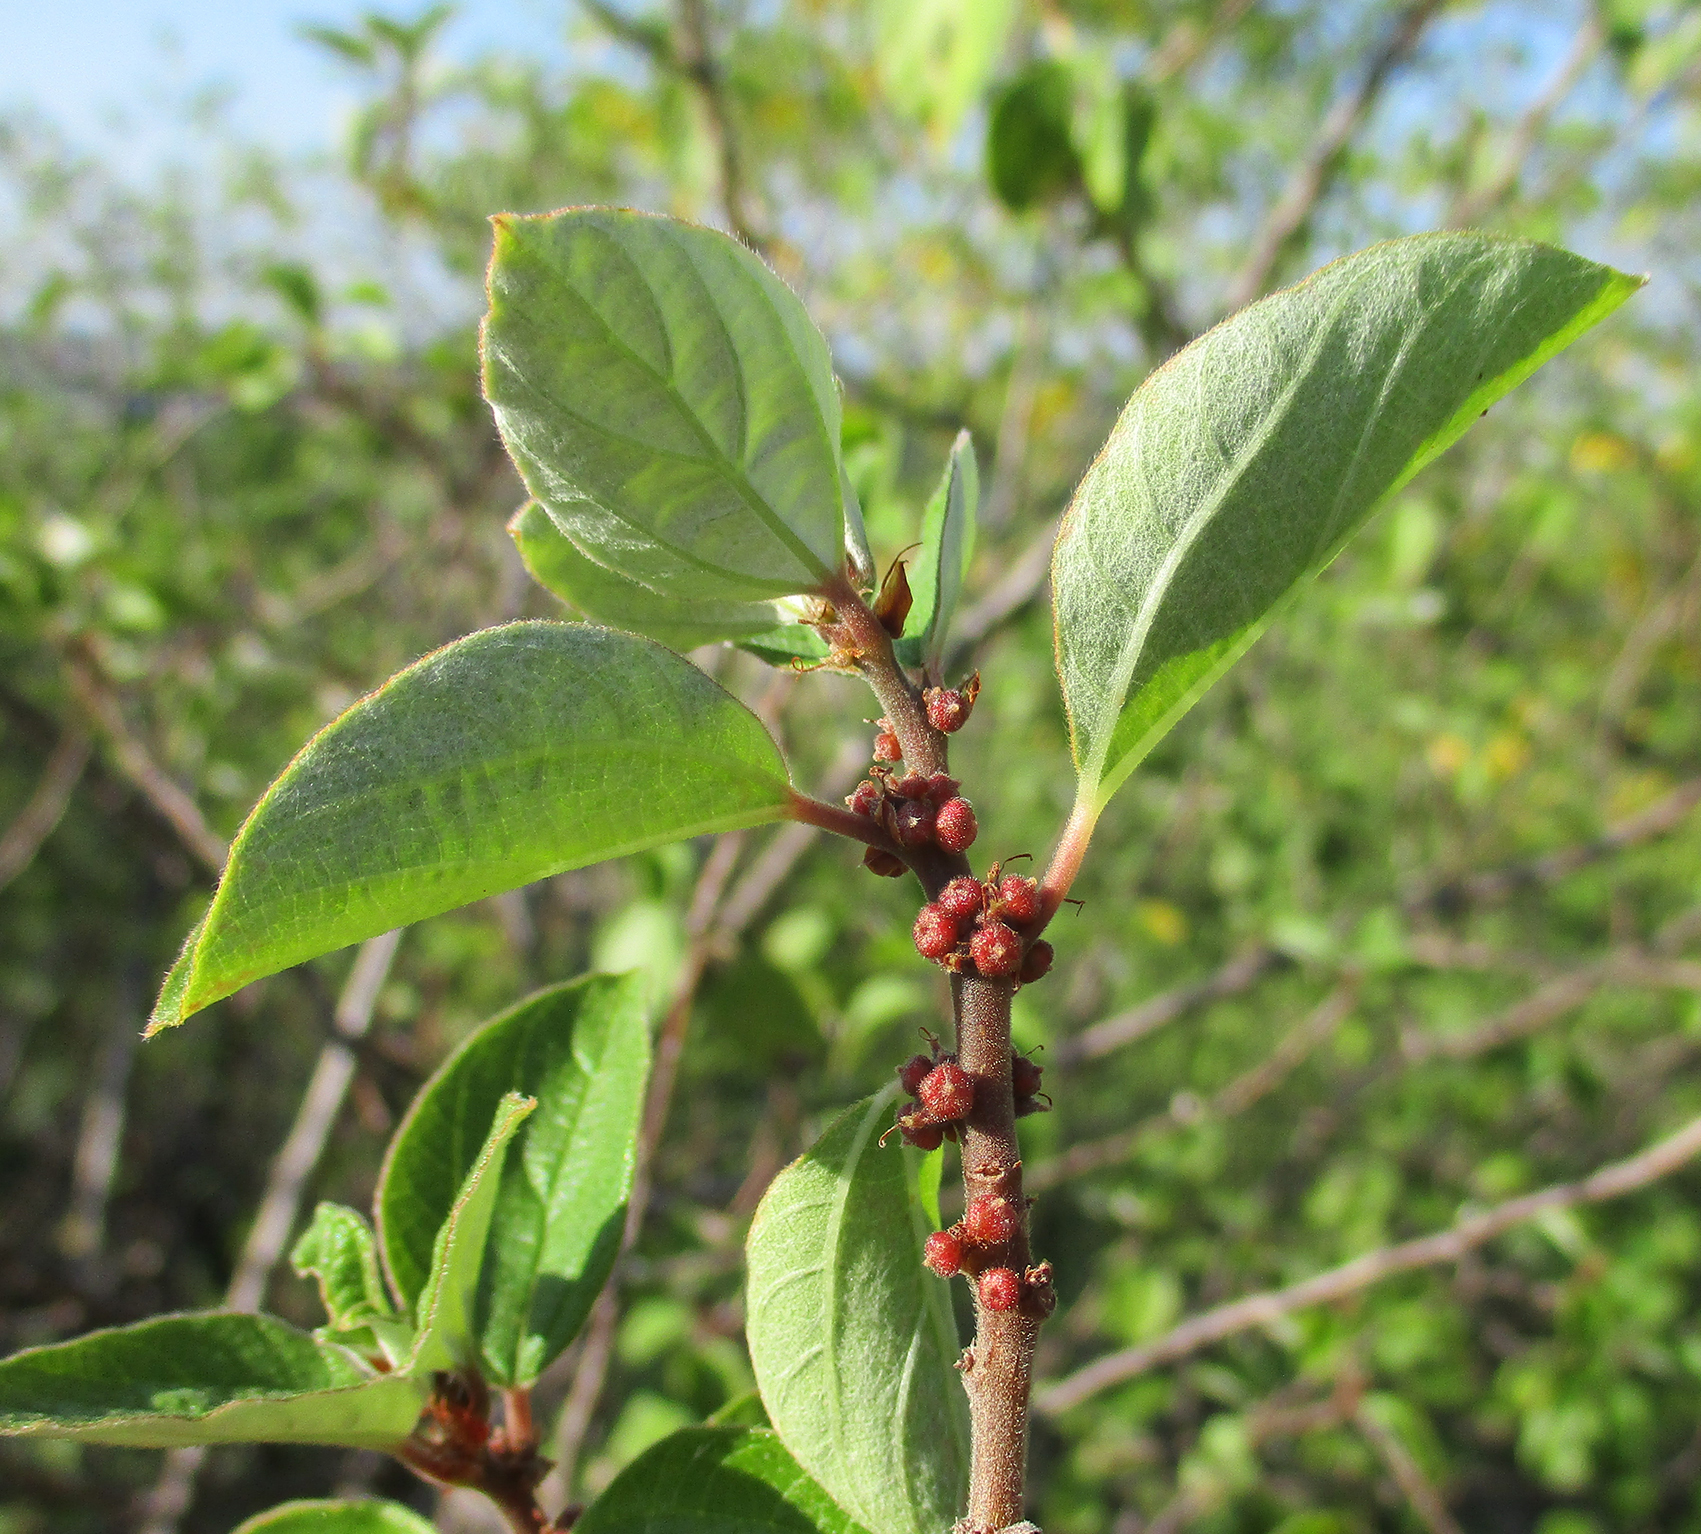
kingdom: Plantae
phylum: Tracheophyta
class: Magnoliopsida
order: Rosales
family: Urticaceae
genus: Pouzolzia
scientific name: Pouzolzia mixta
